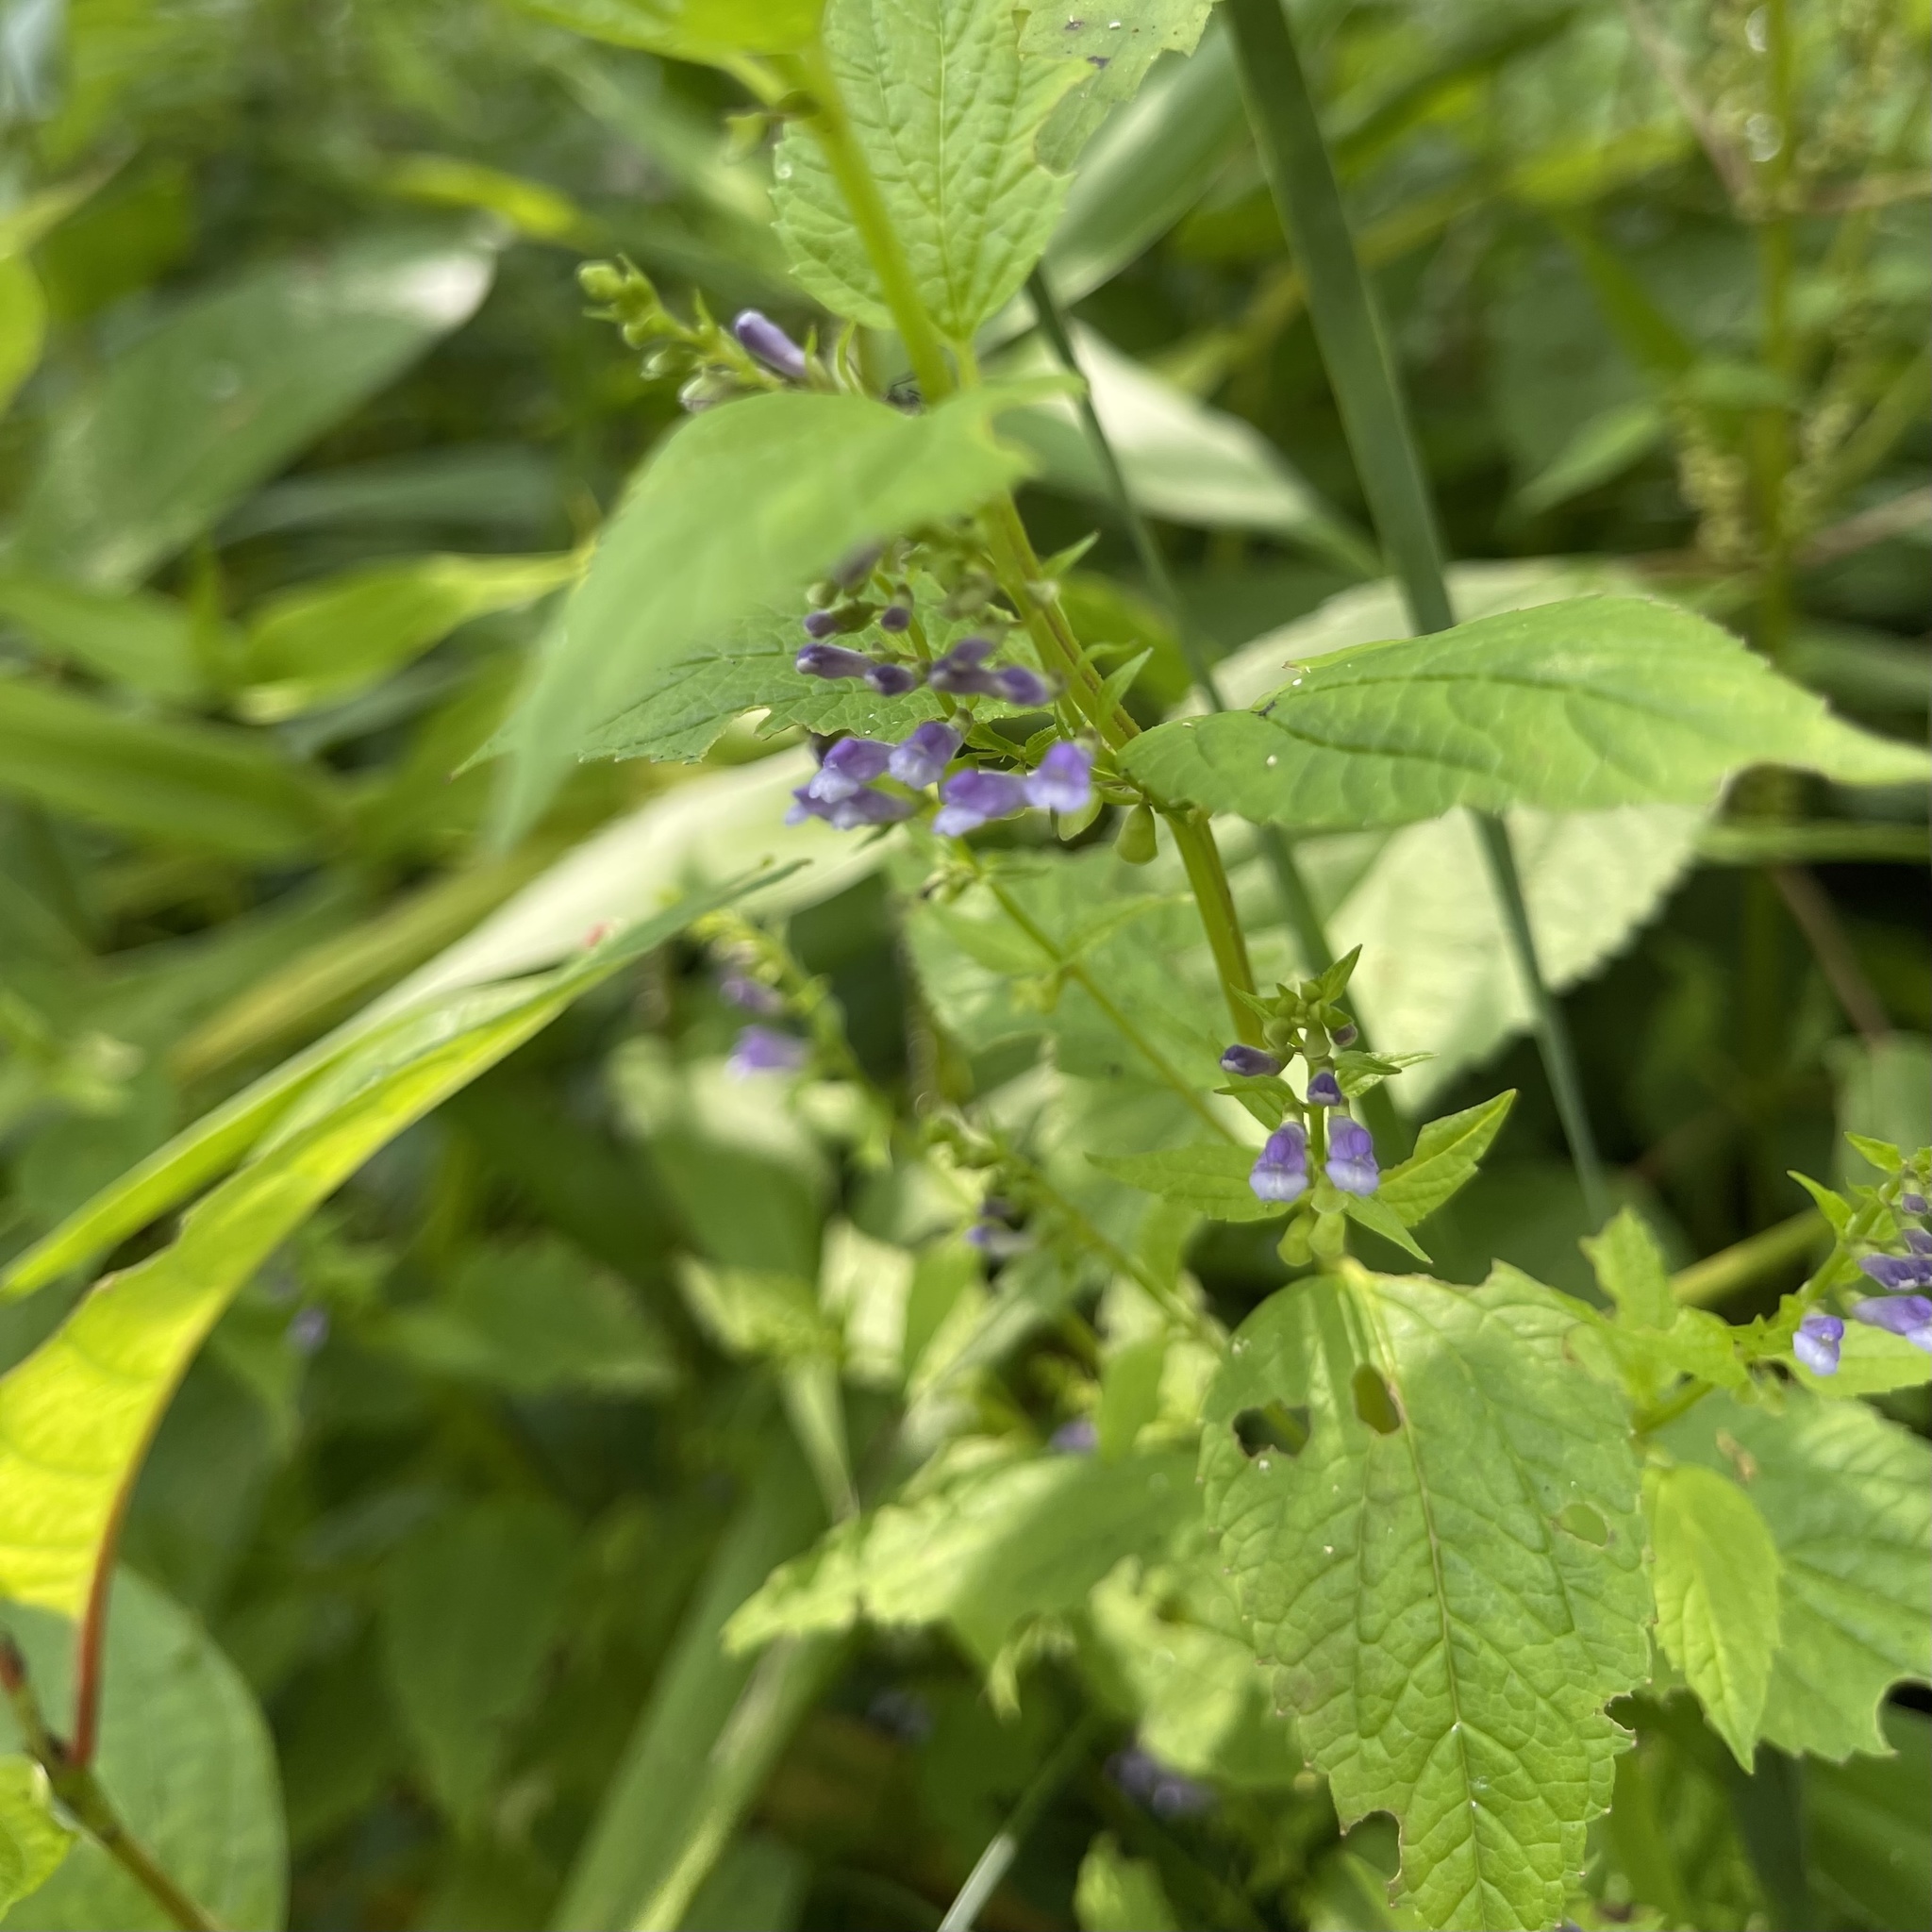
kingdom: Plantae
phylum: Tracheophyta
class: Magnoliopsida
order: Lamiales
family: Lamiaceae
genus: Scutellaria
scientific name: Scutellaria lateriflora
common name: Blue skullcap
